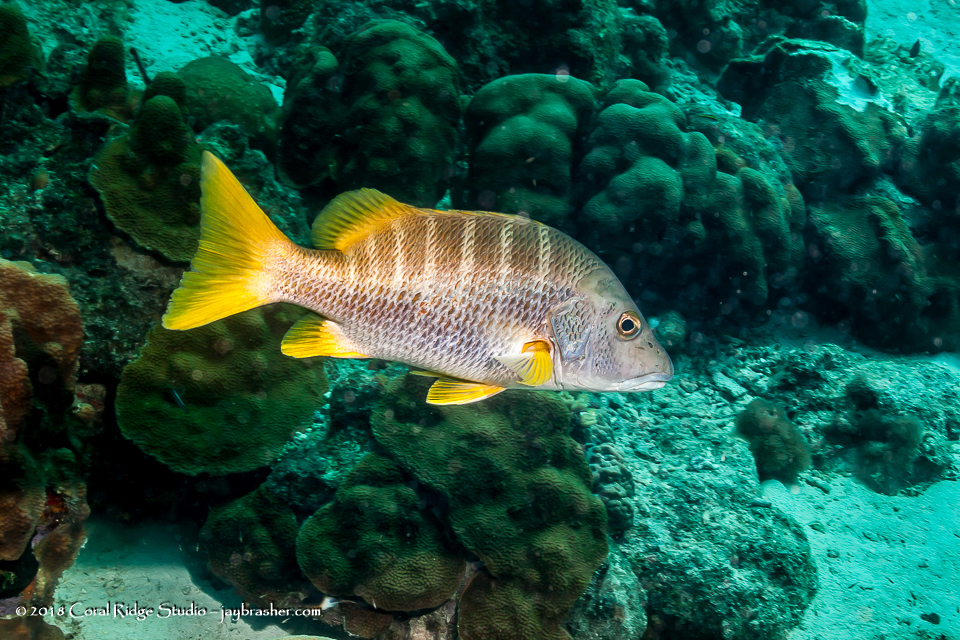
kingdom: Animalia
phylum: Chordata
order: Perciformes
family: Lutjanidae
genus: Lutjanus
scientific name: Lutjanus apodus
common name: Schoolmaster
